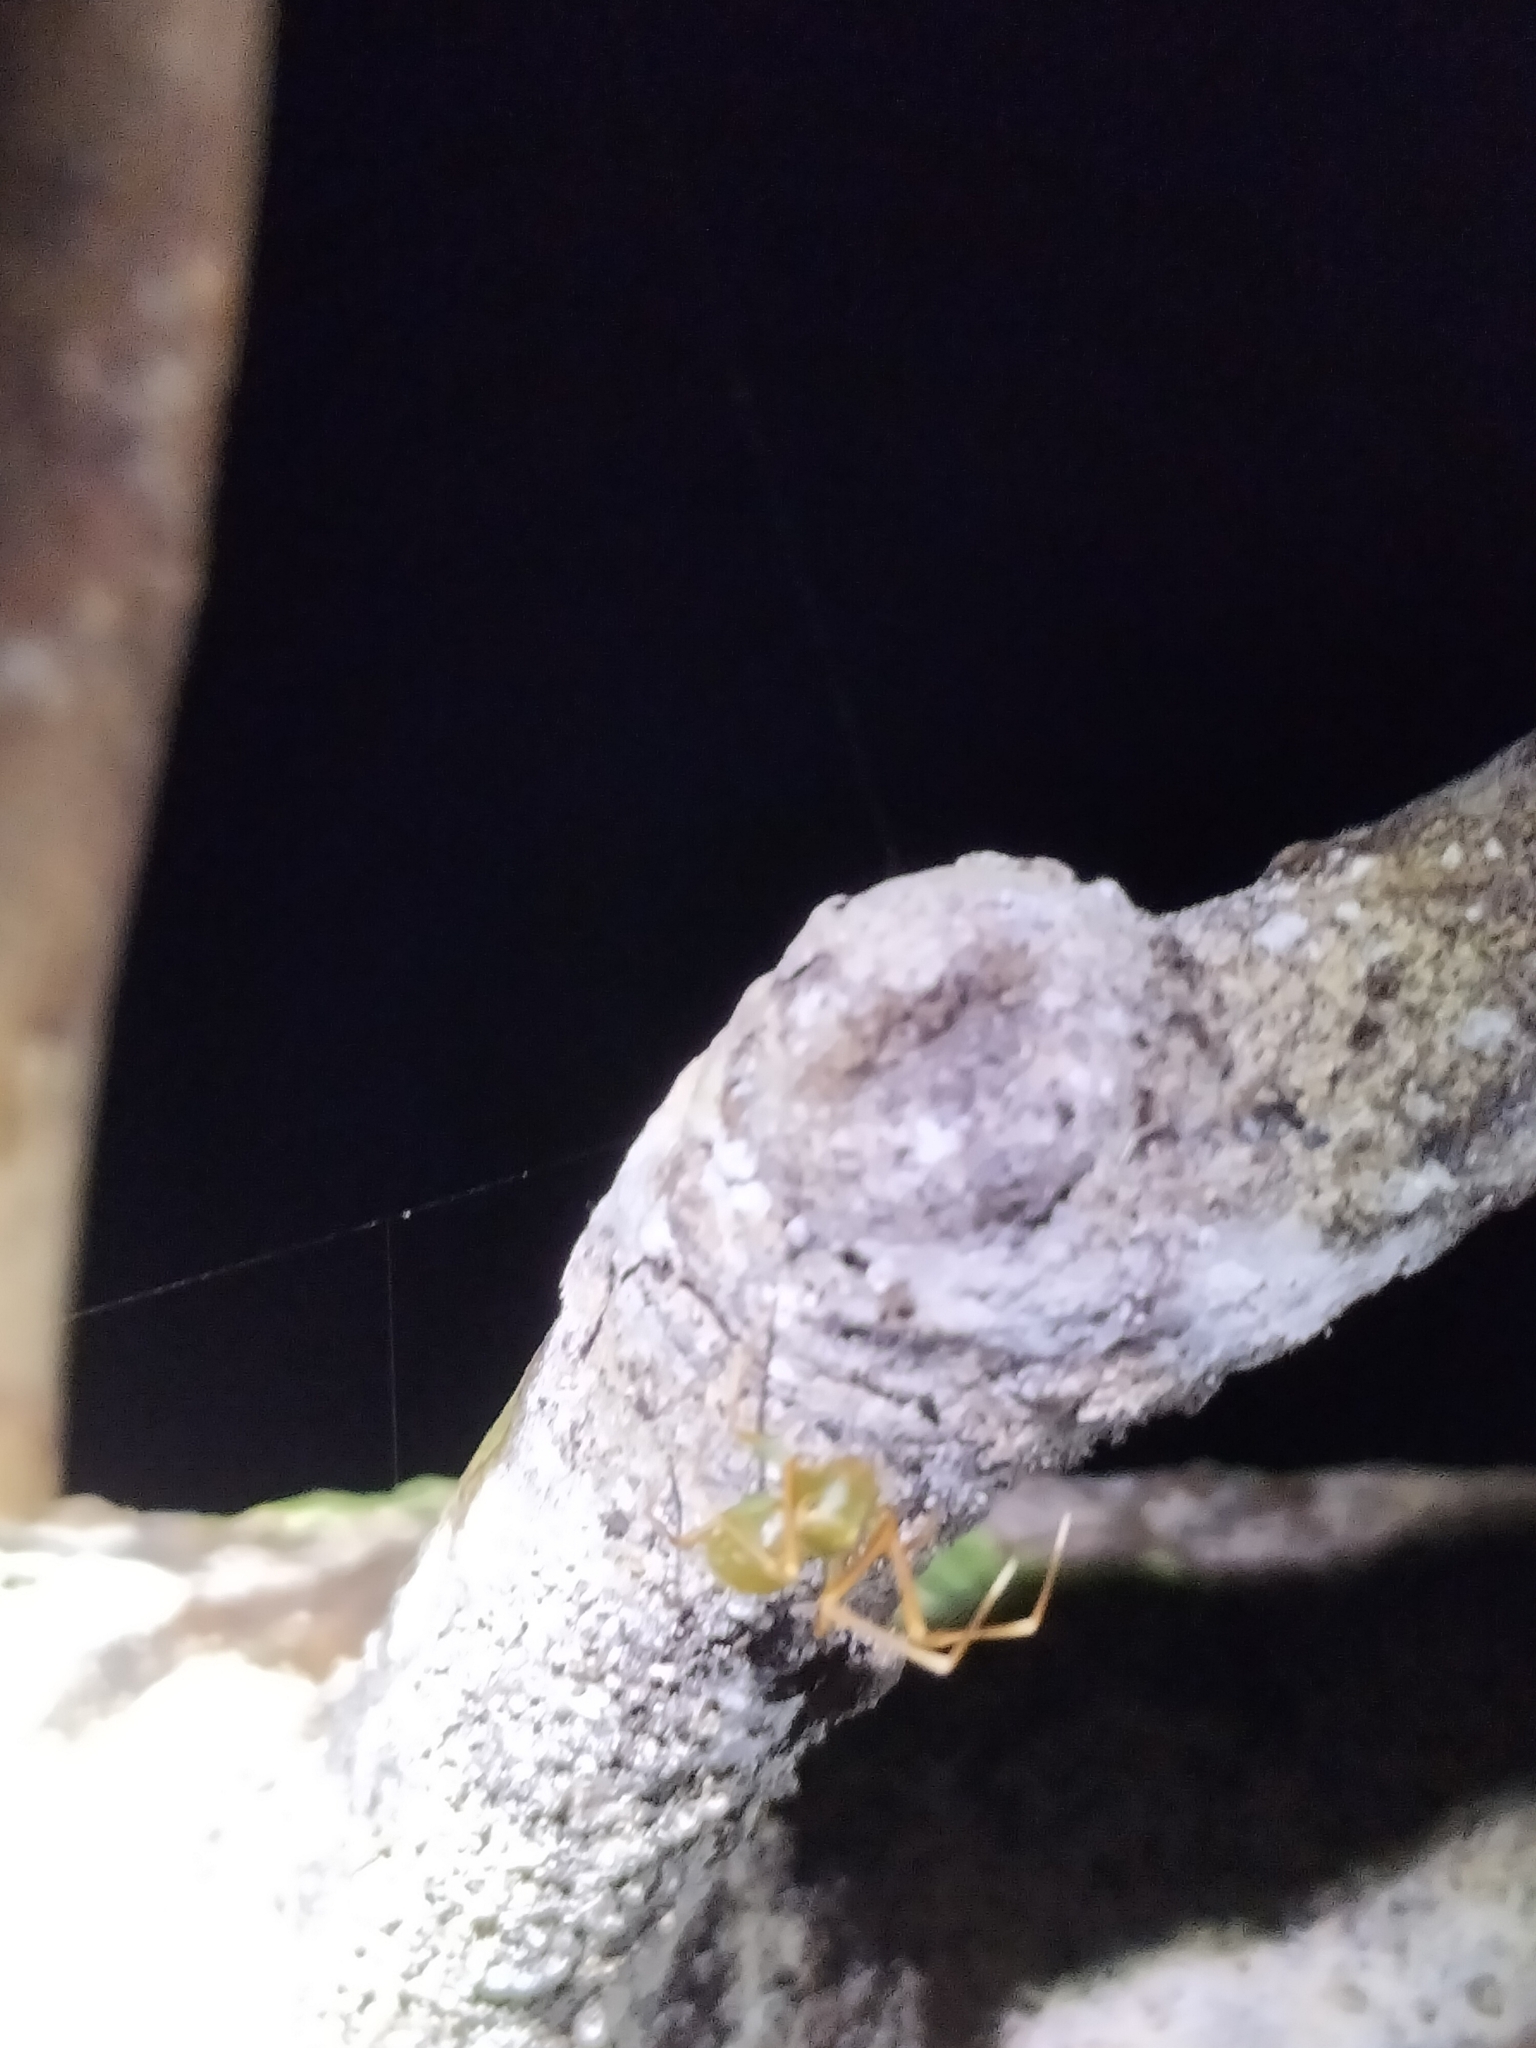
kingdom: Animalia
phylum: Arthropoda
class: Arachnida
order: Araneae
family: Thomisidae
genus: Amyciaea
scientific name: Amyciaea albomaculata
